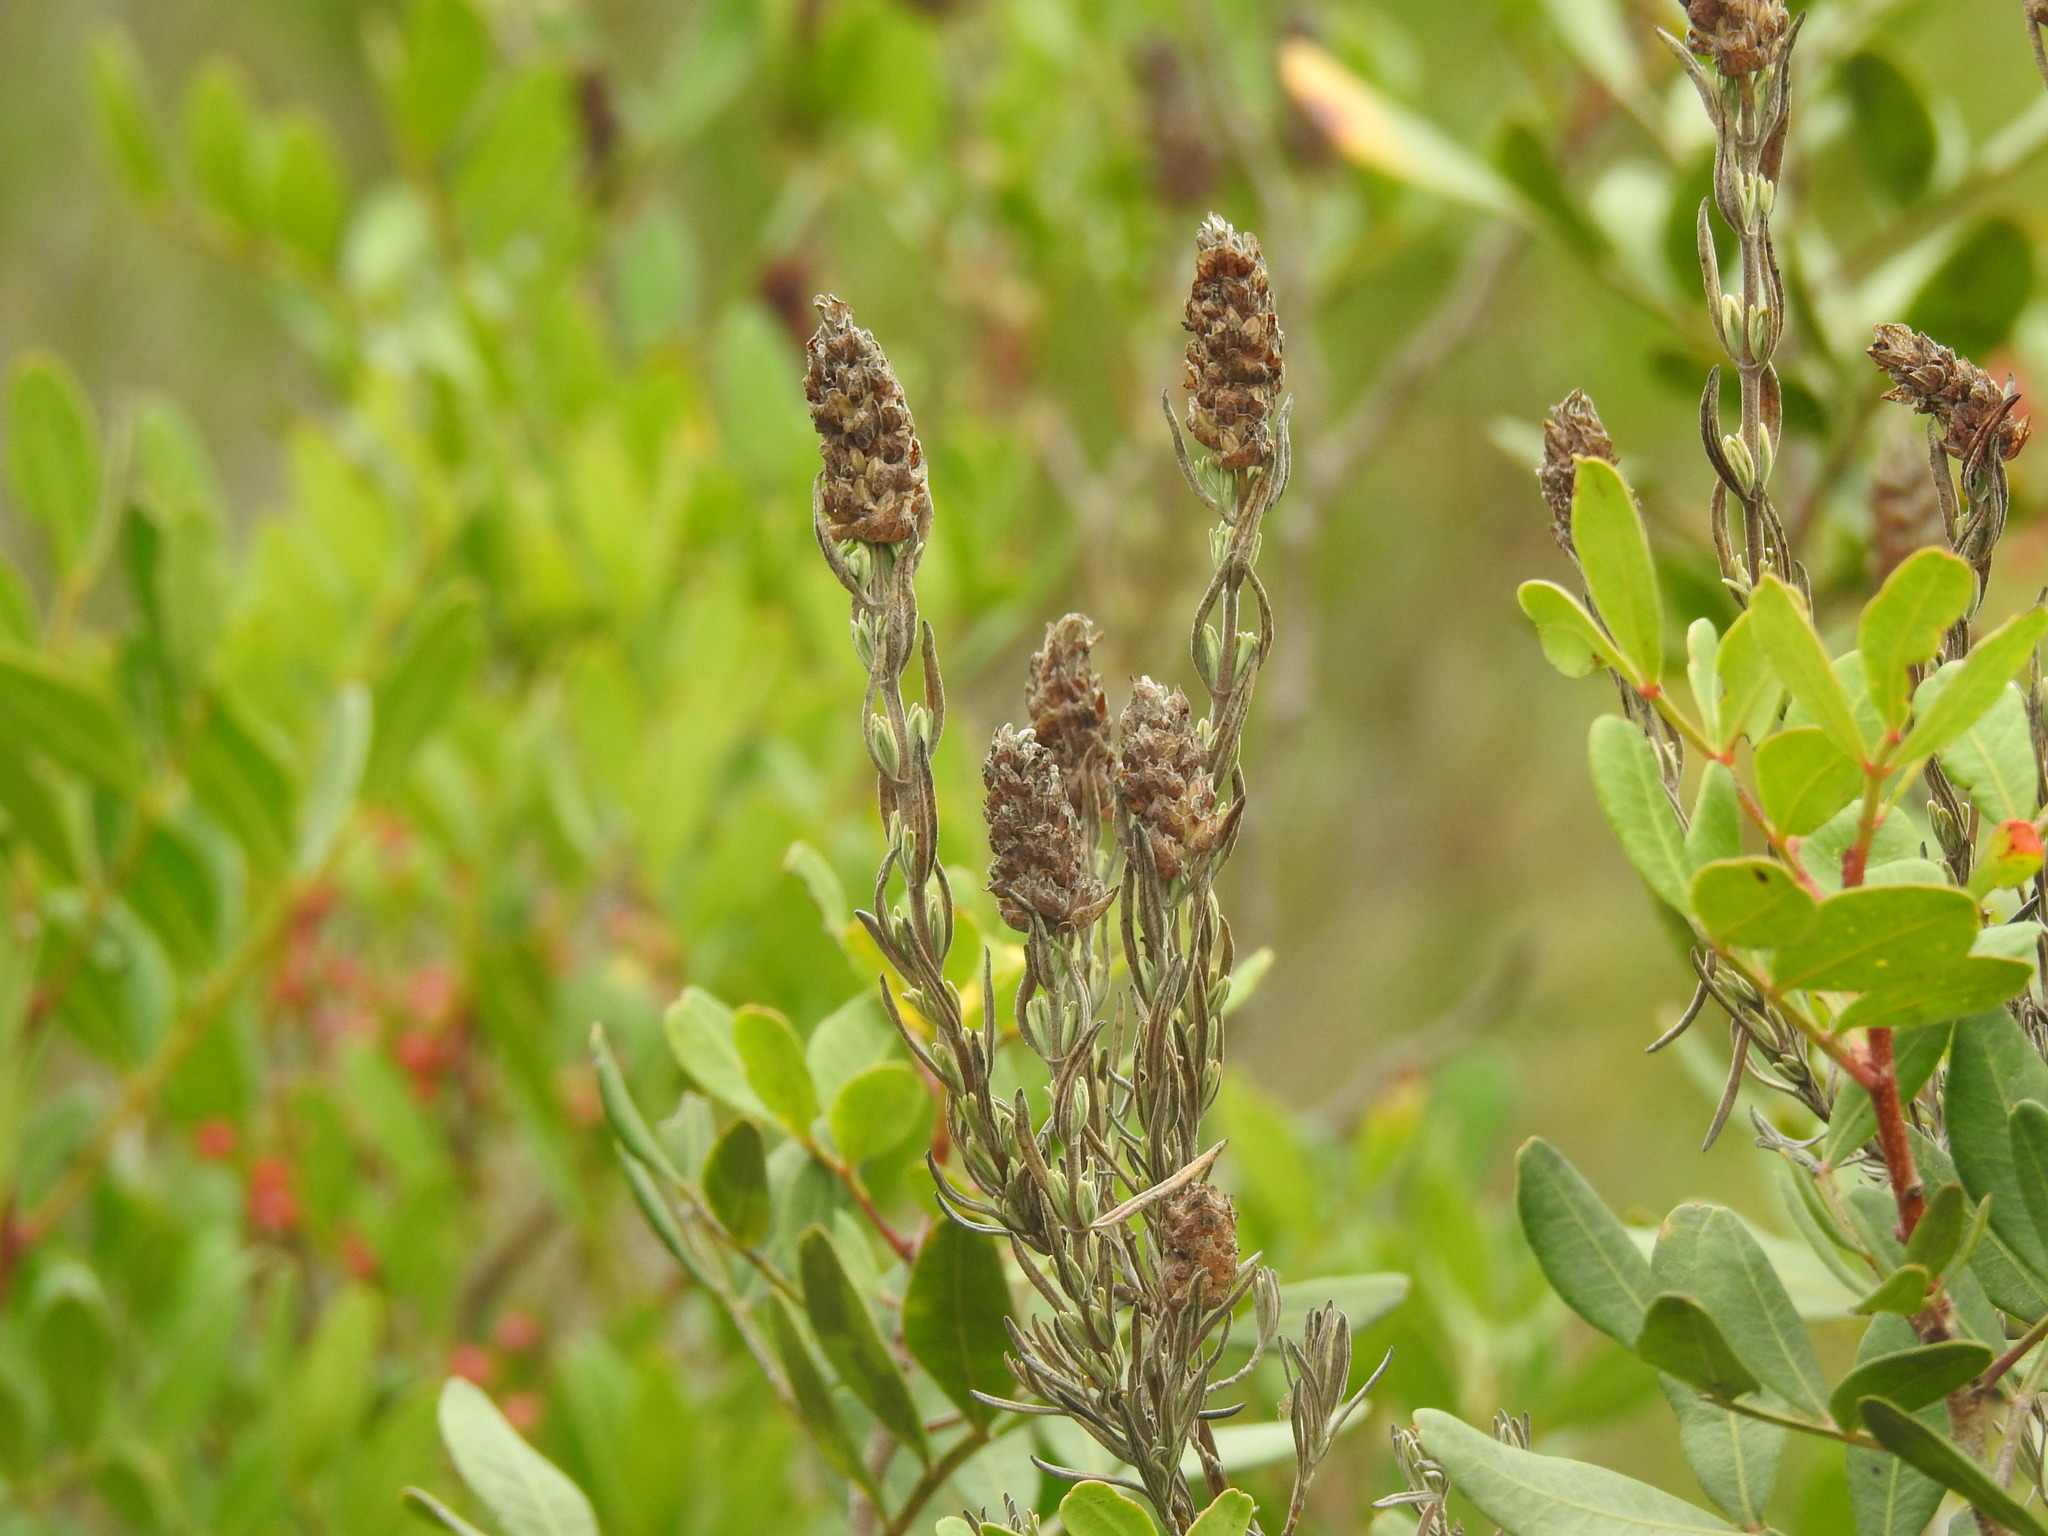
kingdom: Plantae
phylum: Tracheophyta
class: Magnoliopsida
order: Lamiales
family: Lamiaceae
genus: Lavandula
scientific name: Lavandula stoechas
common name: French lavender
